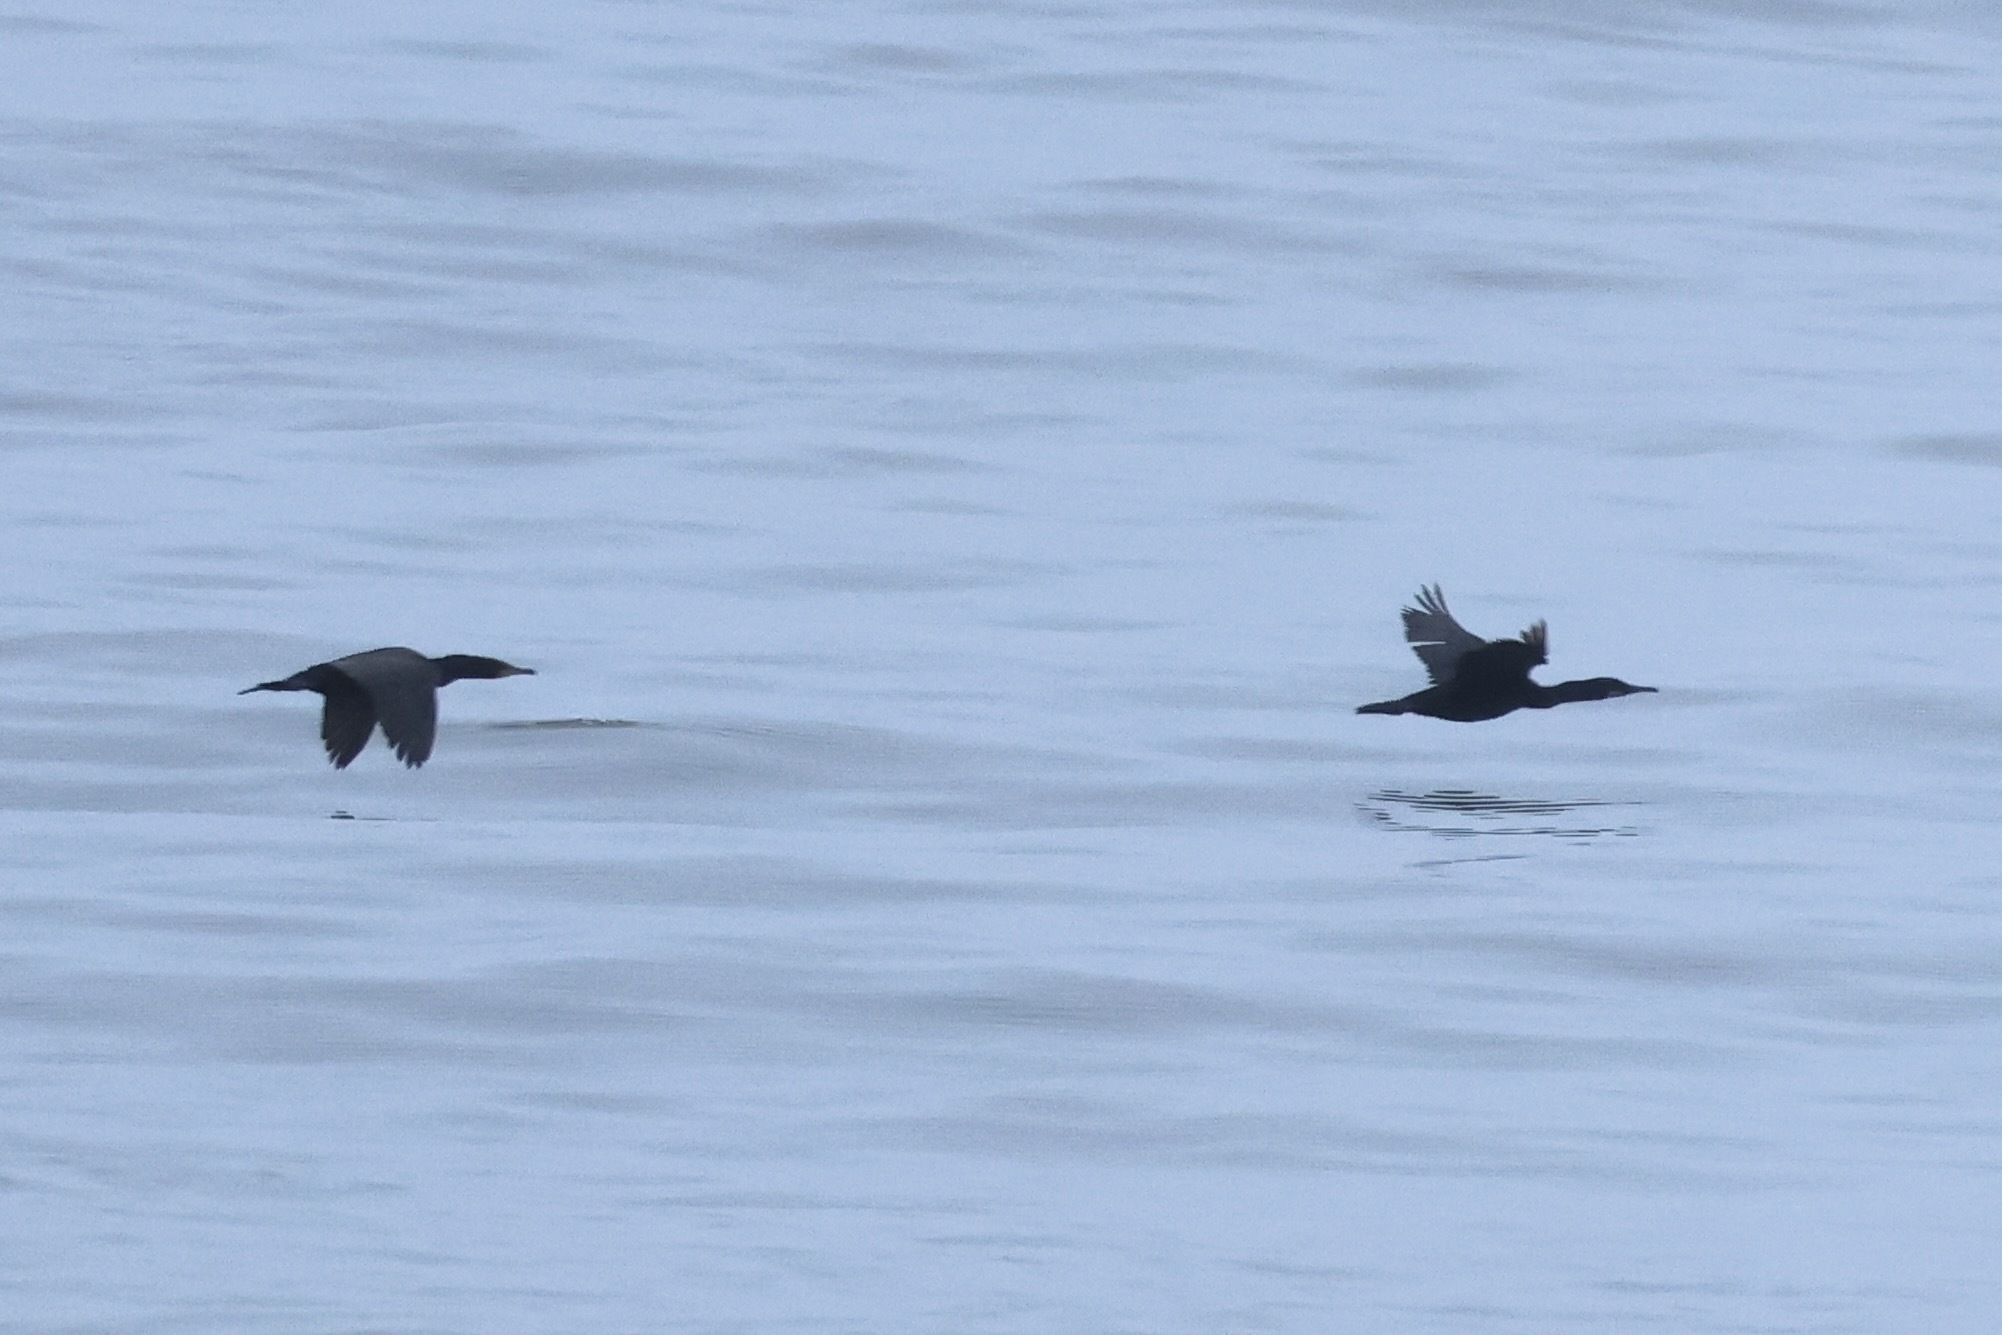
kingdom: Animalia
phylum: Chordata
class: Aves
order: Suliformes
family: Phalacrocoracidae
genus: Urile
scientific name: Urile penicillatus
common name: Brandt's cormorant
